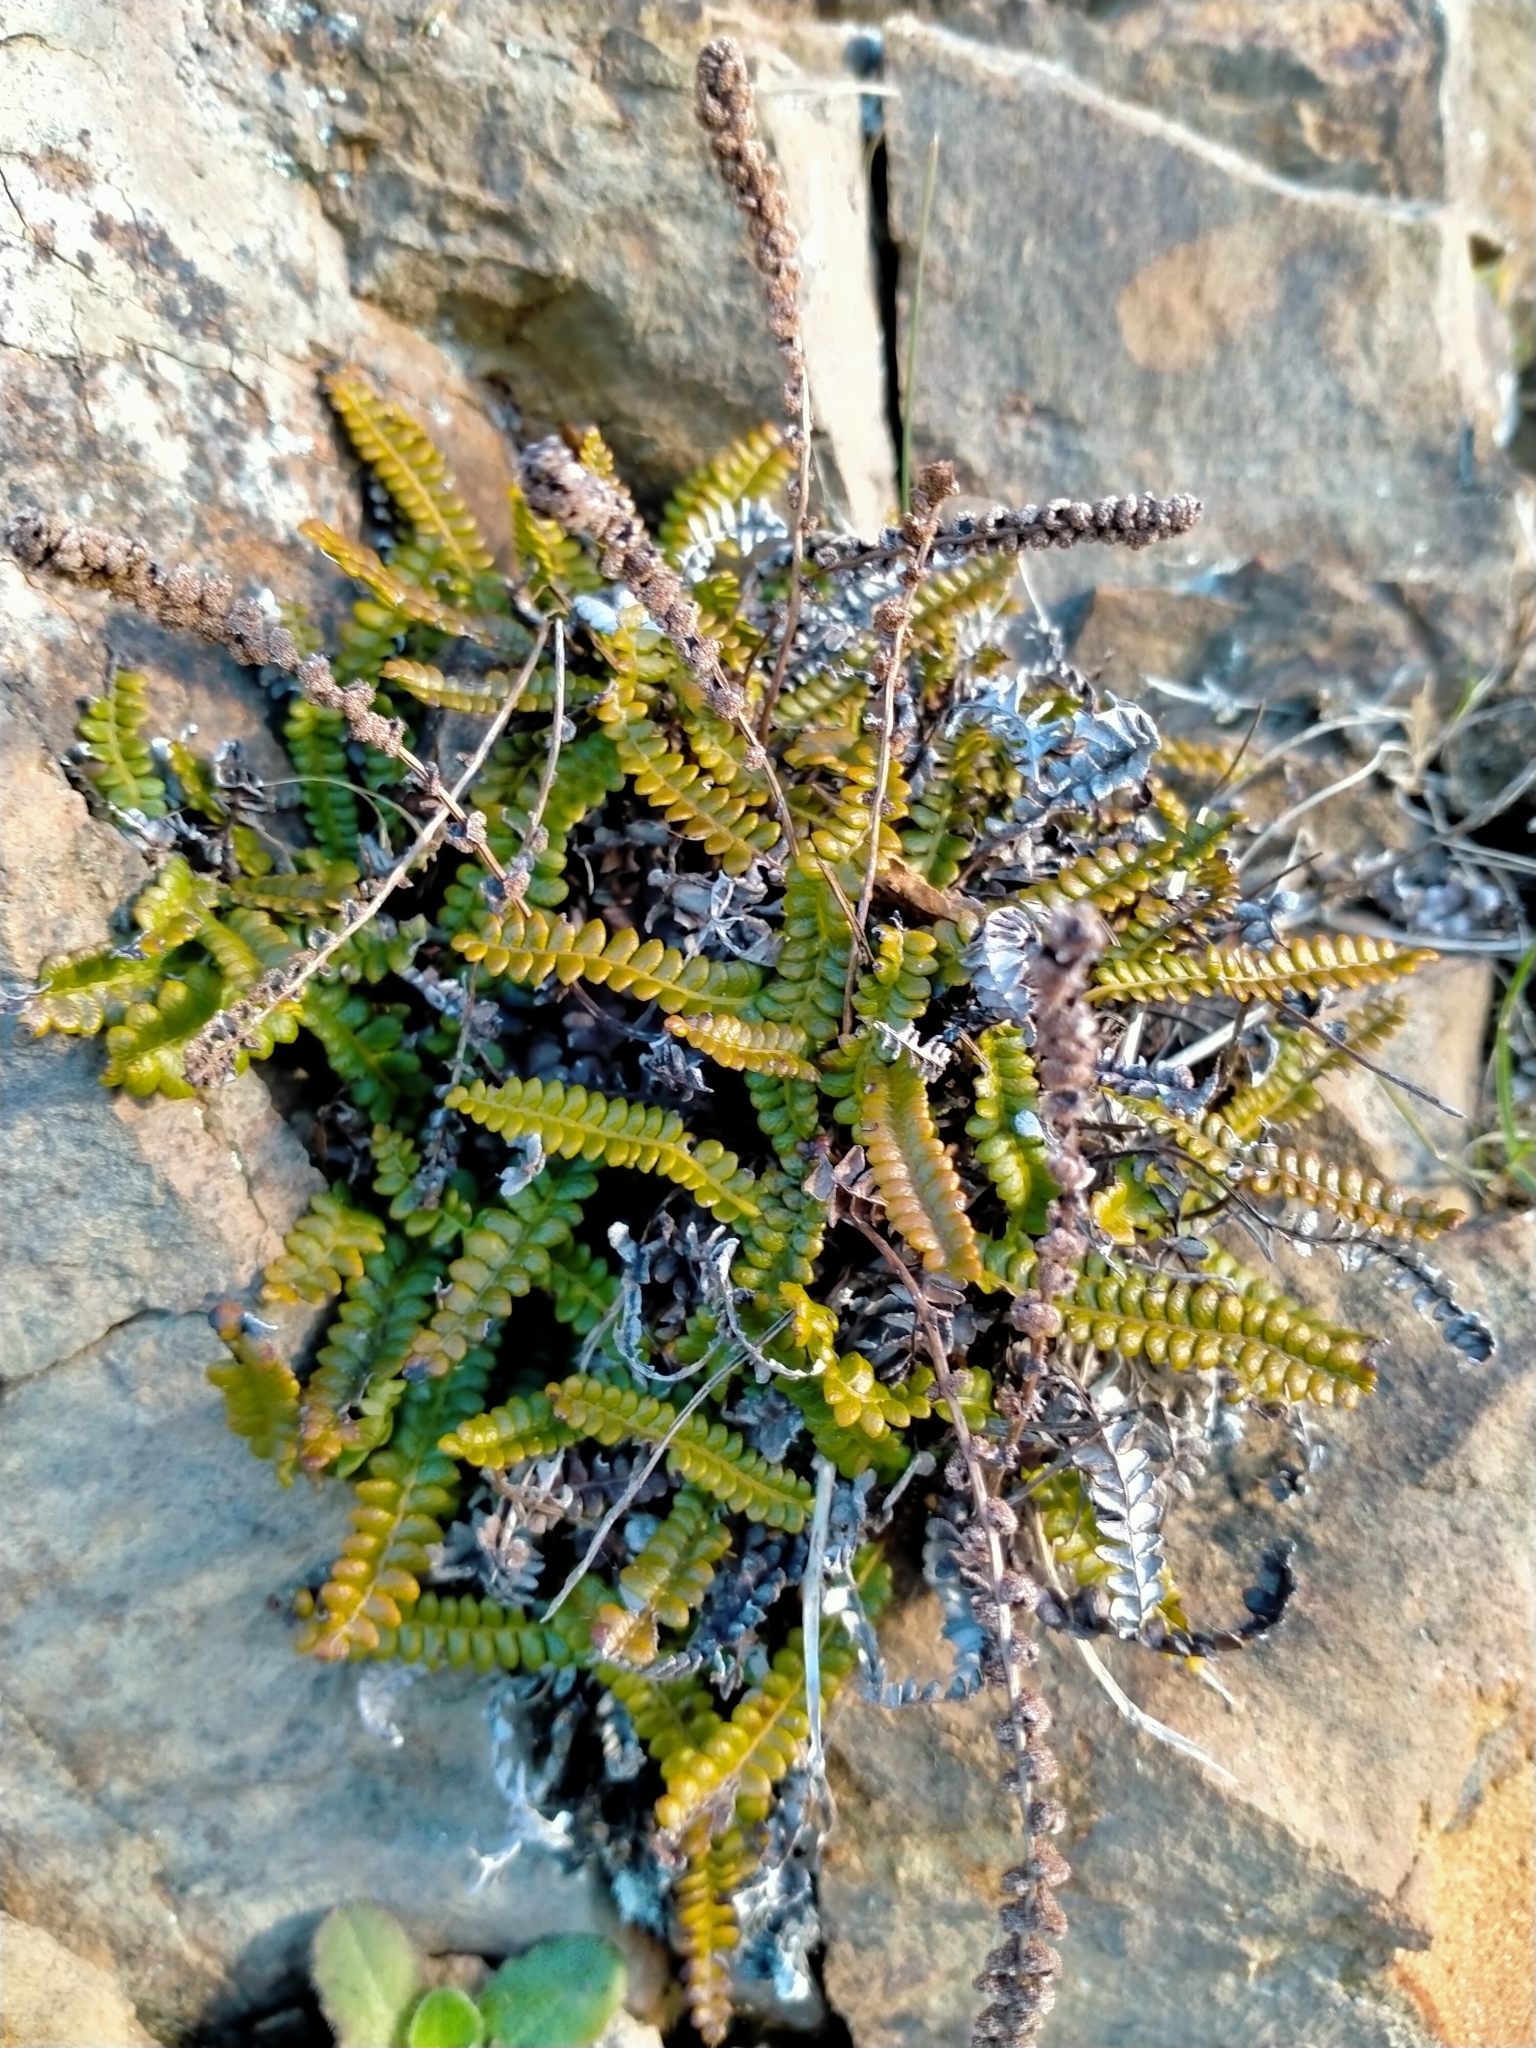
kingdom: Plantae
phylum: Tracheophyta
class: Polypodiopsida
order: Polypodiales
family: Blechnaceae
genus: Austroblechnum
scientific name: Austroblechnum penna-marina
